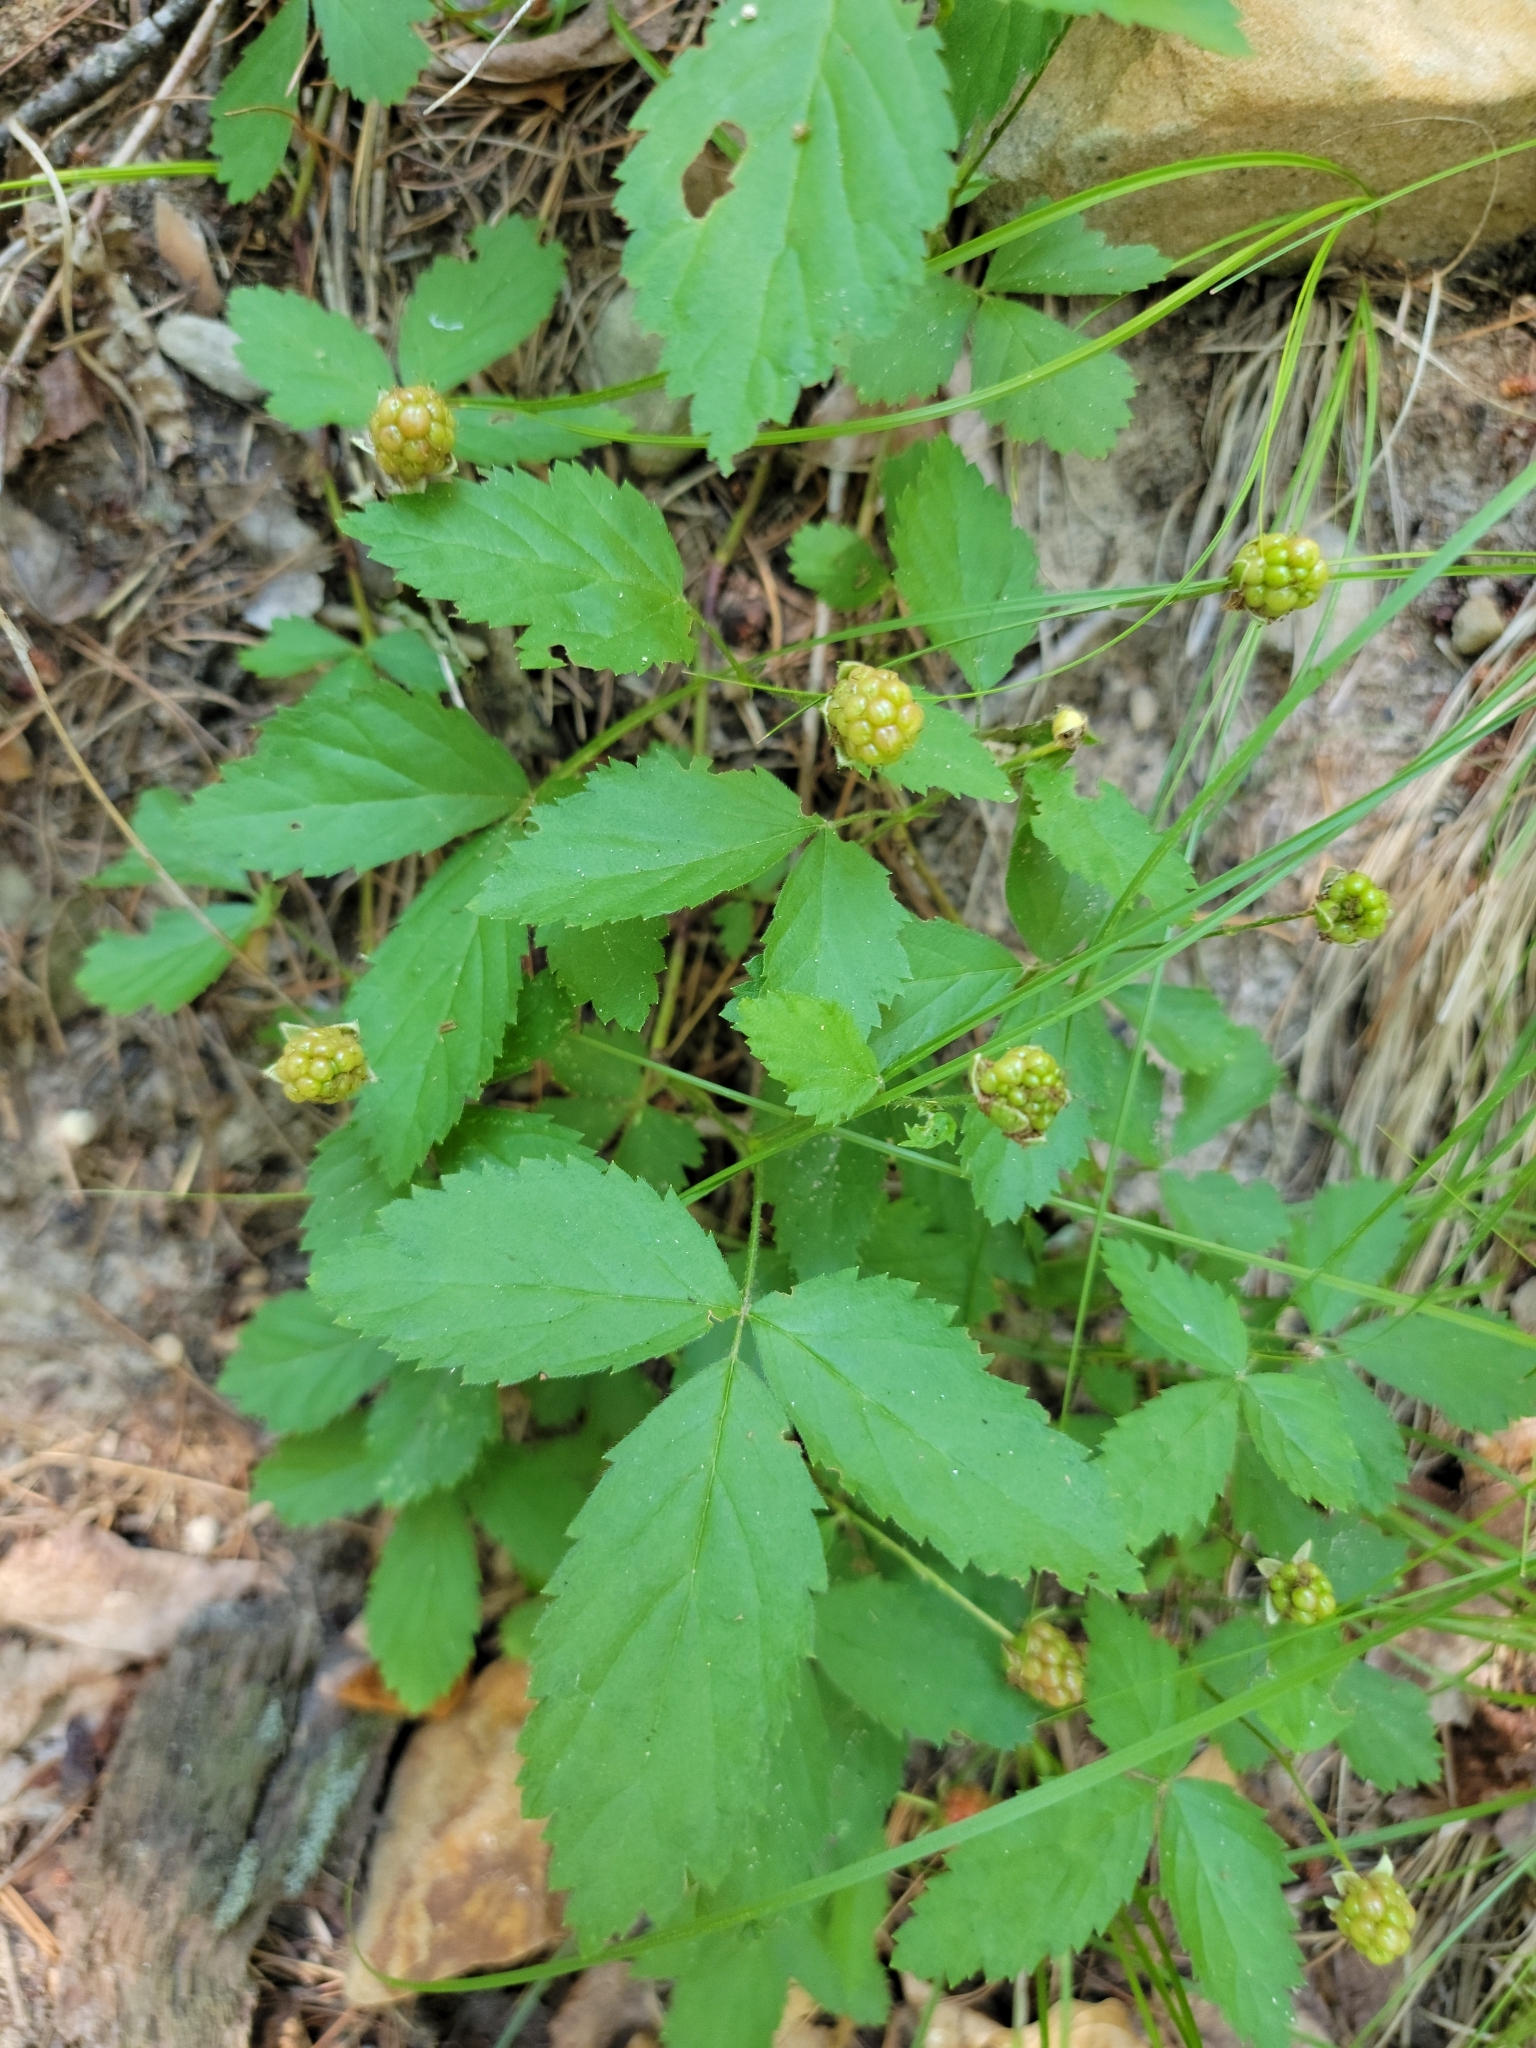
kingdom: Plantae
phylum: Tracheophyta
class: Magnoliopsida
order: Rosales
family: Rosaceae
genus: Rubus
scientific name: Rubus flagellaris
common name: American dewberry
